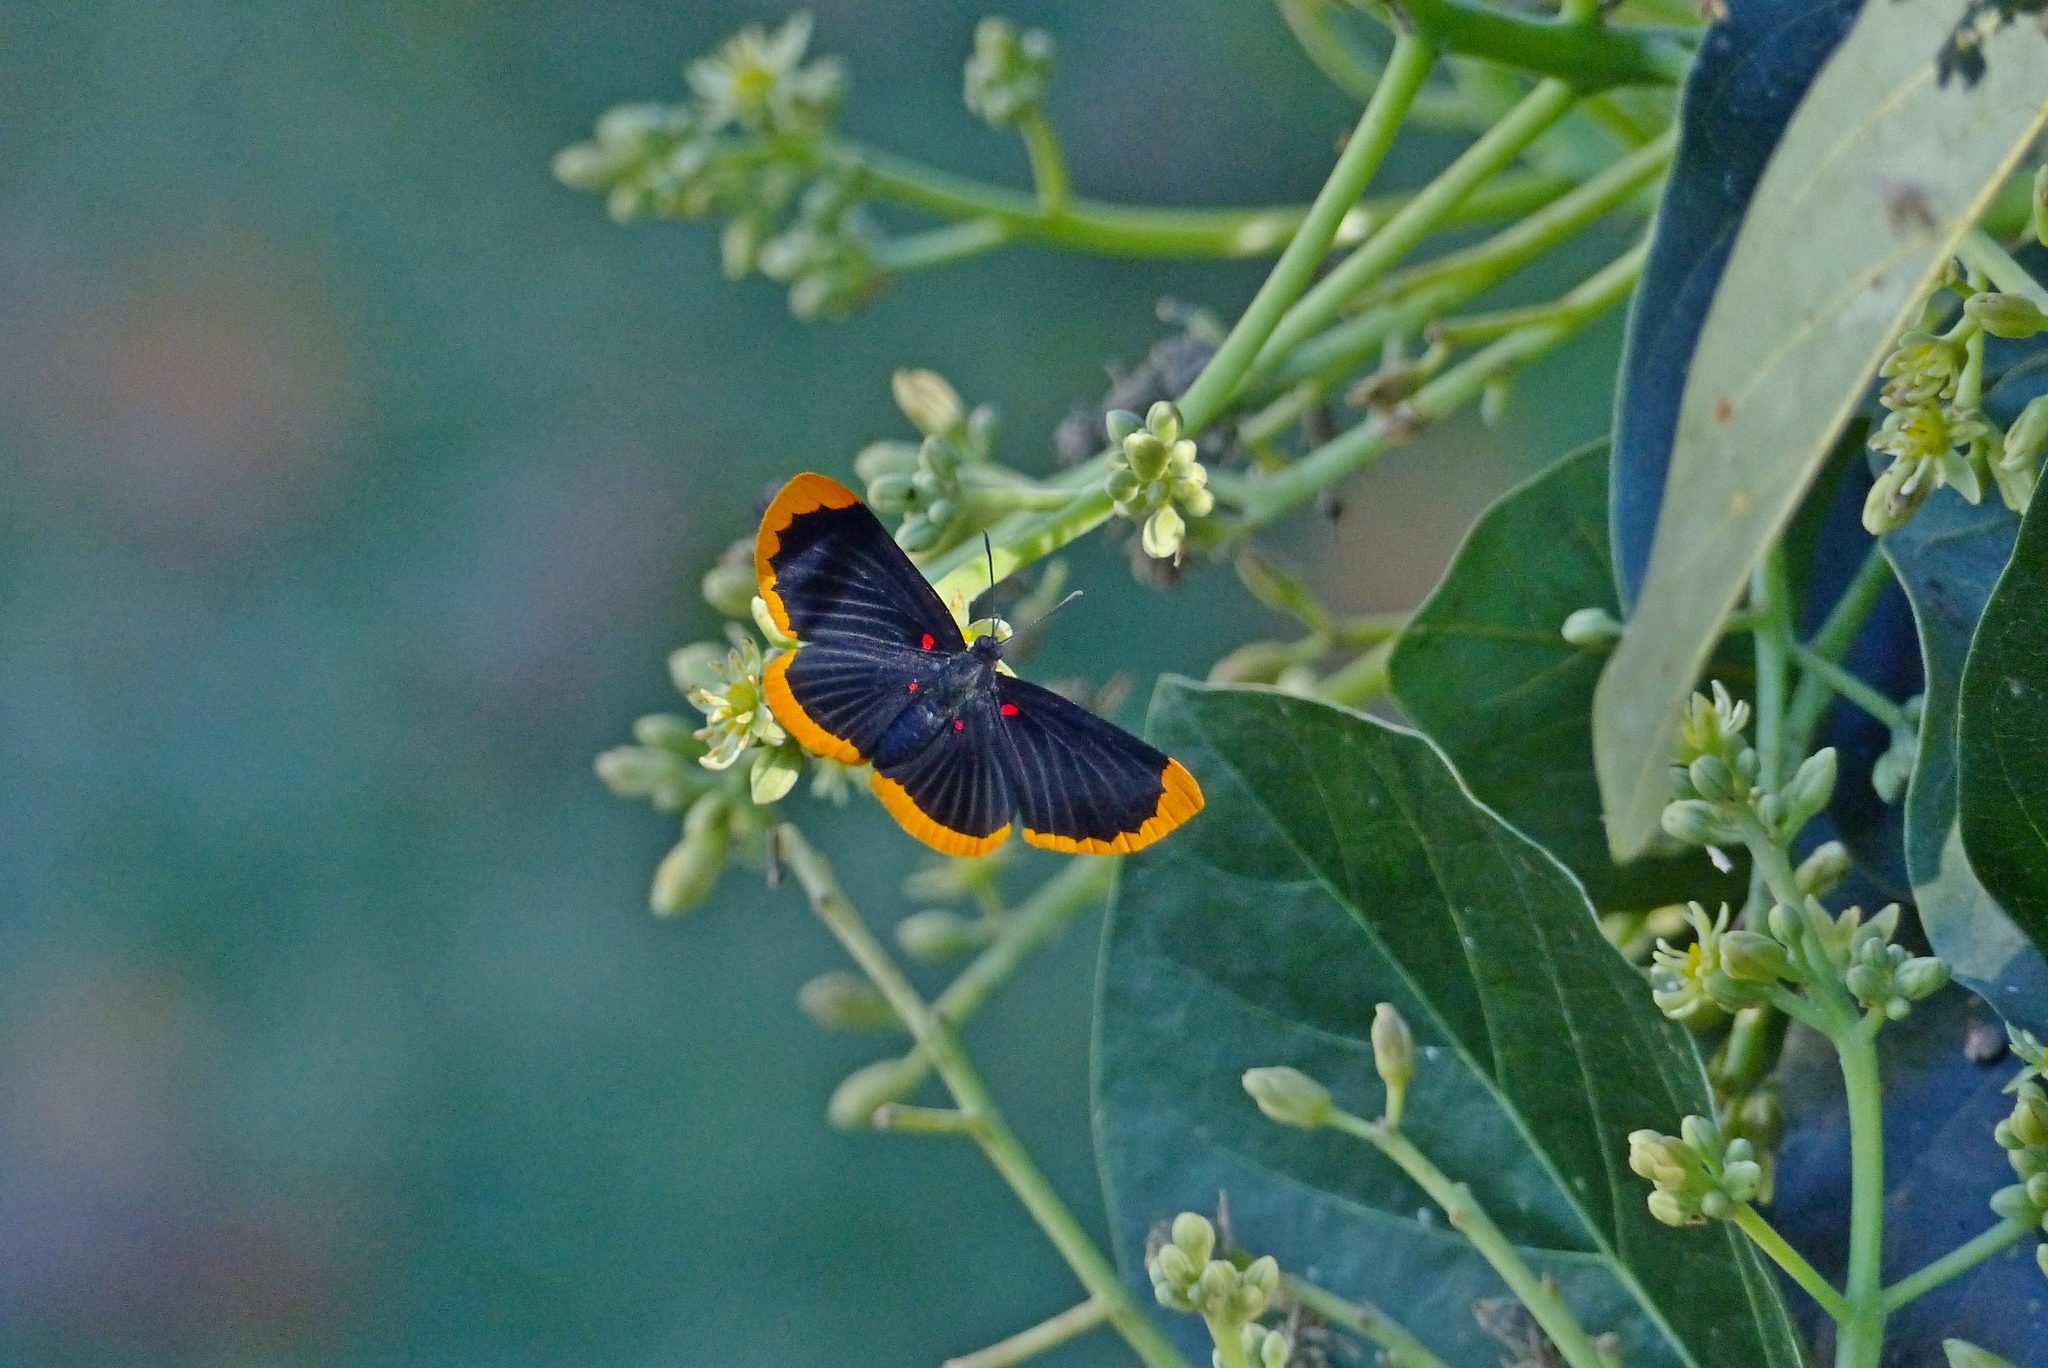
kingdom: Animalia
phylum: Arthropoda
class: Insecta
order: Lepidoptera
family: Lycaenidae
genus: Melanis
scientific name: Melanis smithiae
